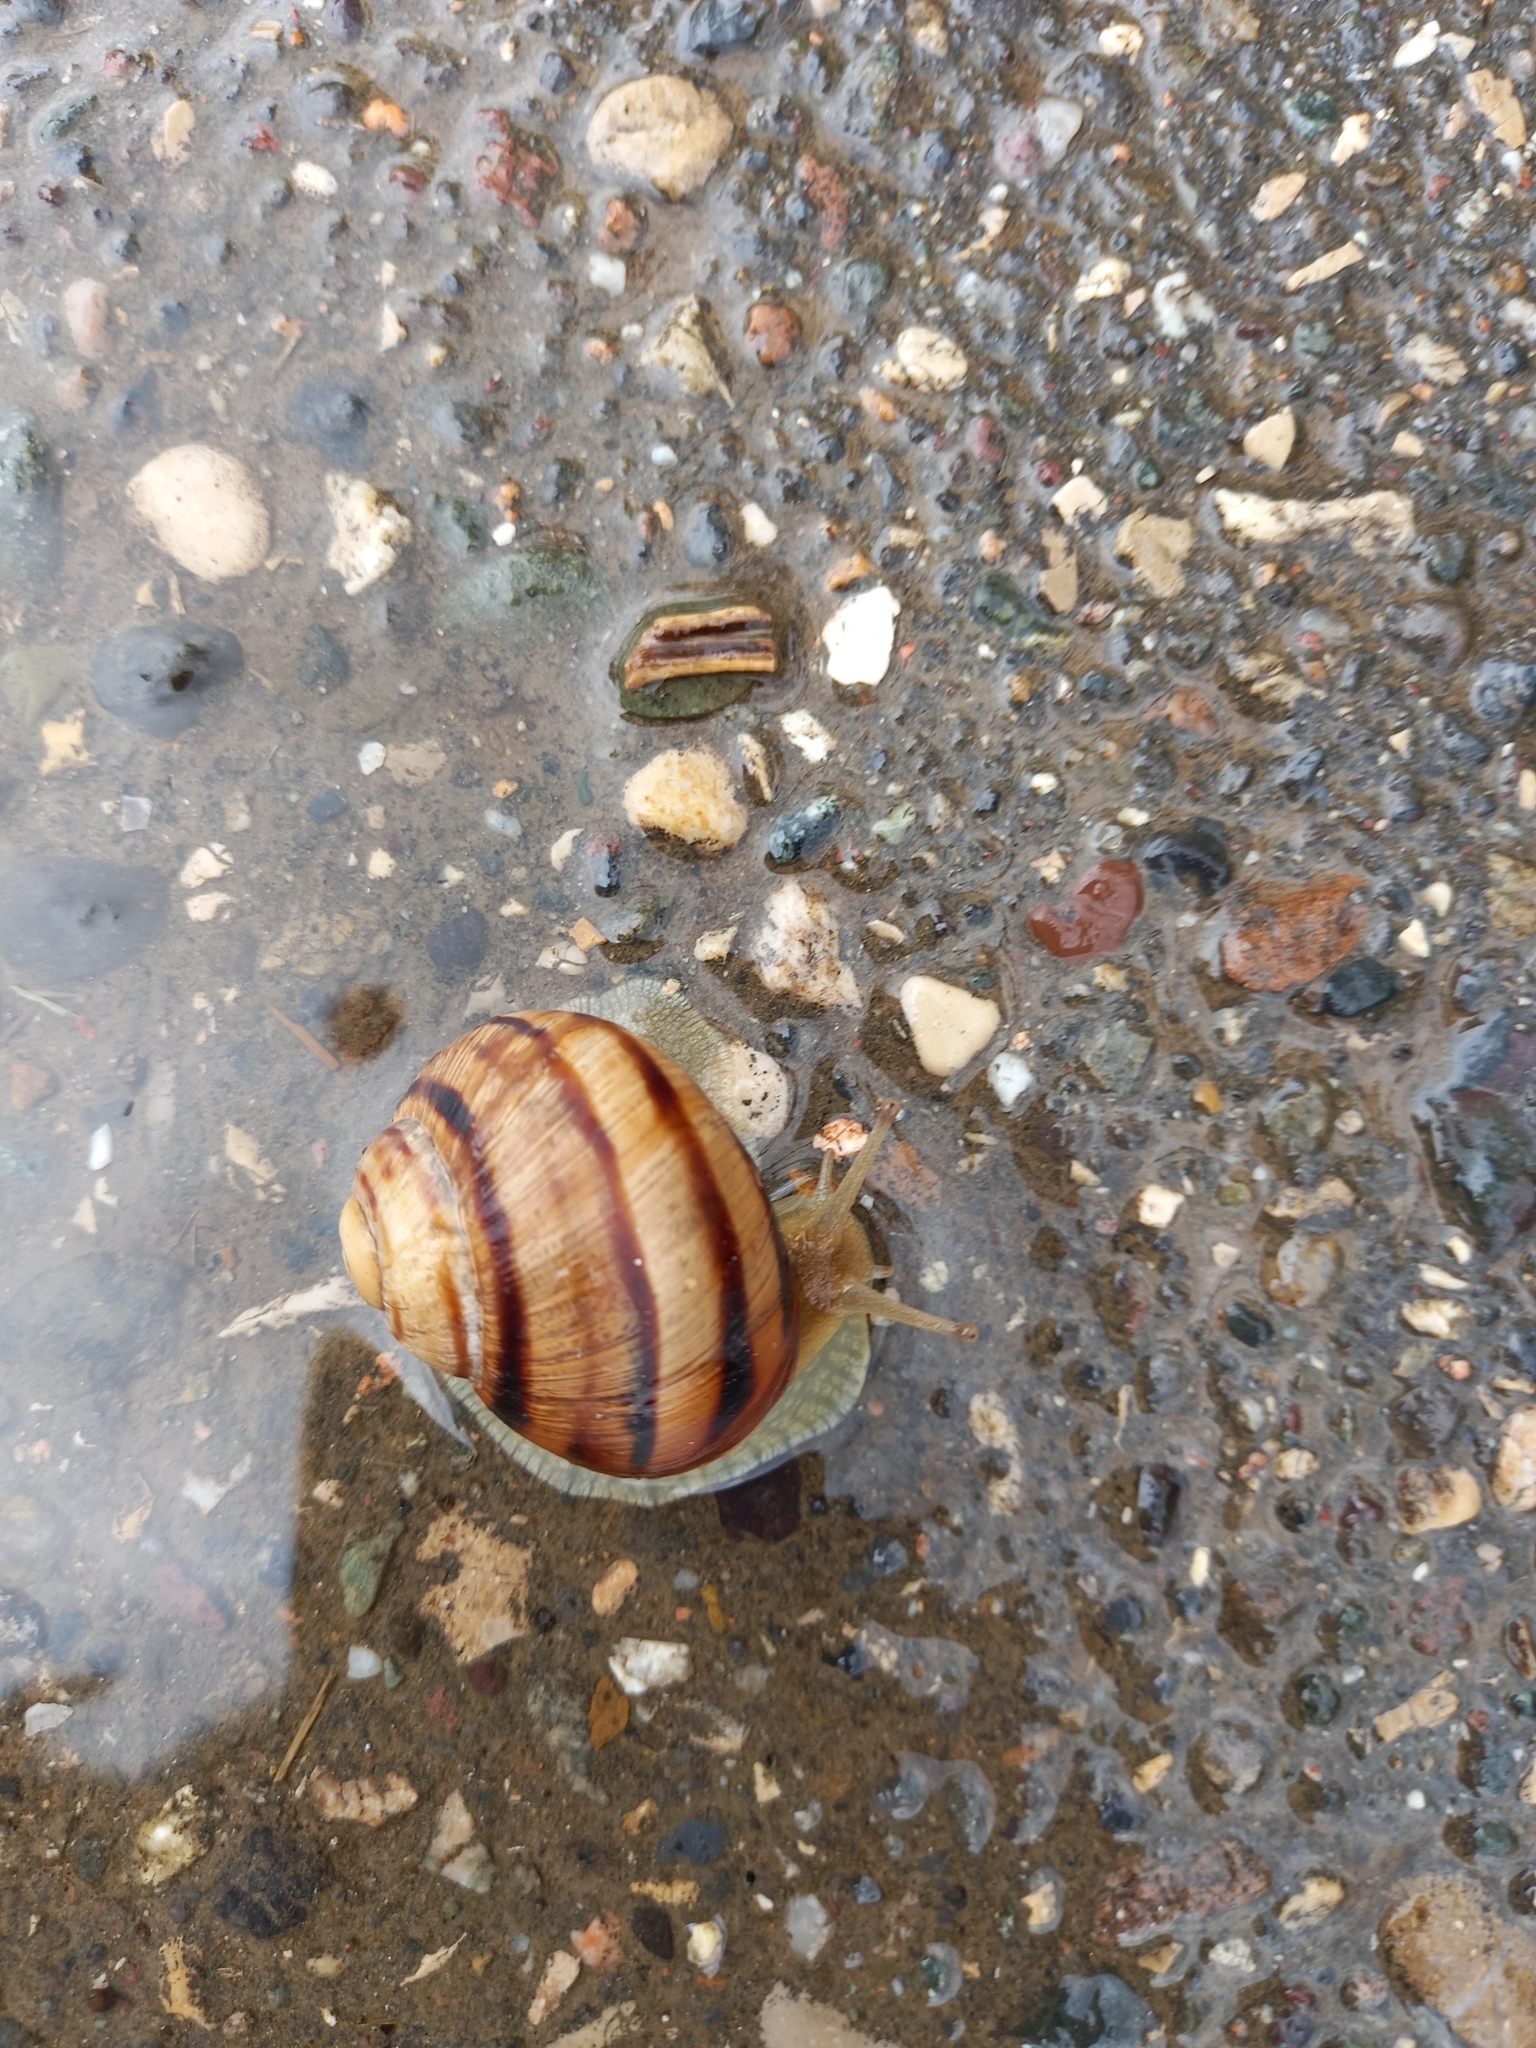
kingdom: Animalia
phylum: Mollusca
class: Gastropoda
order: Stylommatophora
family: Helicidae
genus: Helix
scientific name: Helix albescens
